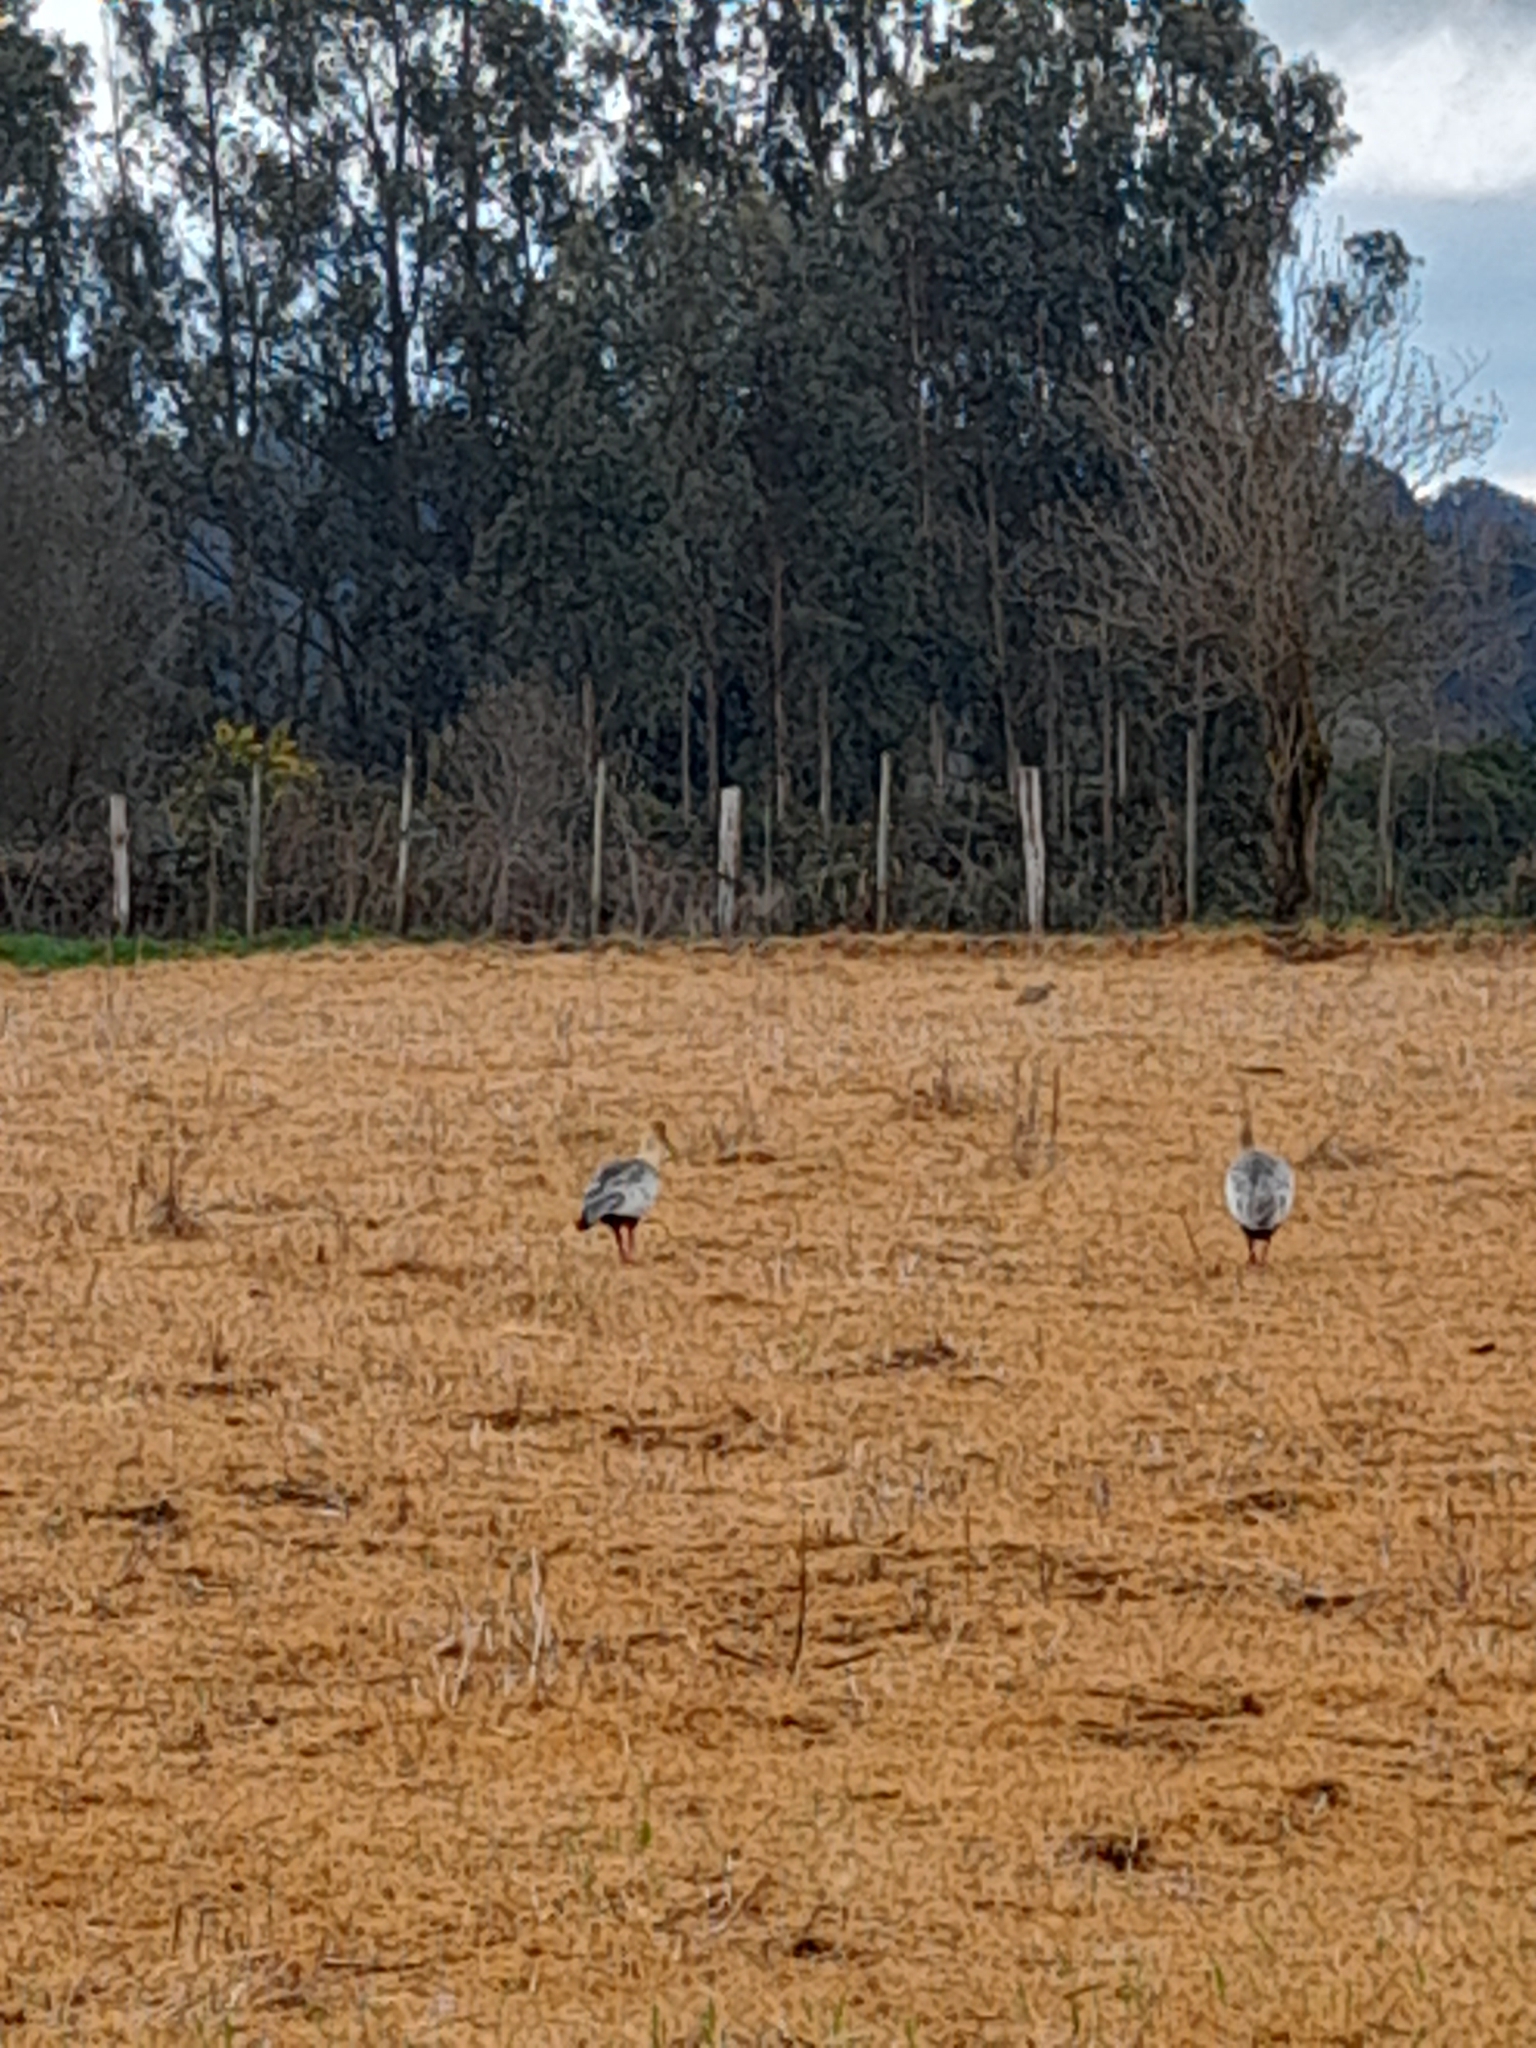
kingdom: Animalia
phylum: Chordata
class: Aves
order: Pelecaniformes
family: Threskiornithidae
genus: Theristicus
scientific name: Theristicus melanopis
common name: Black-faced ibis
